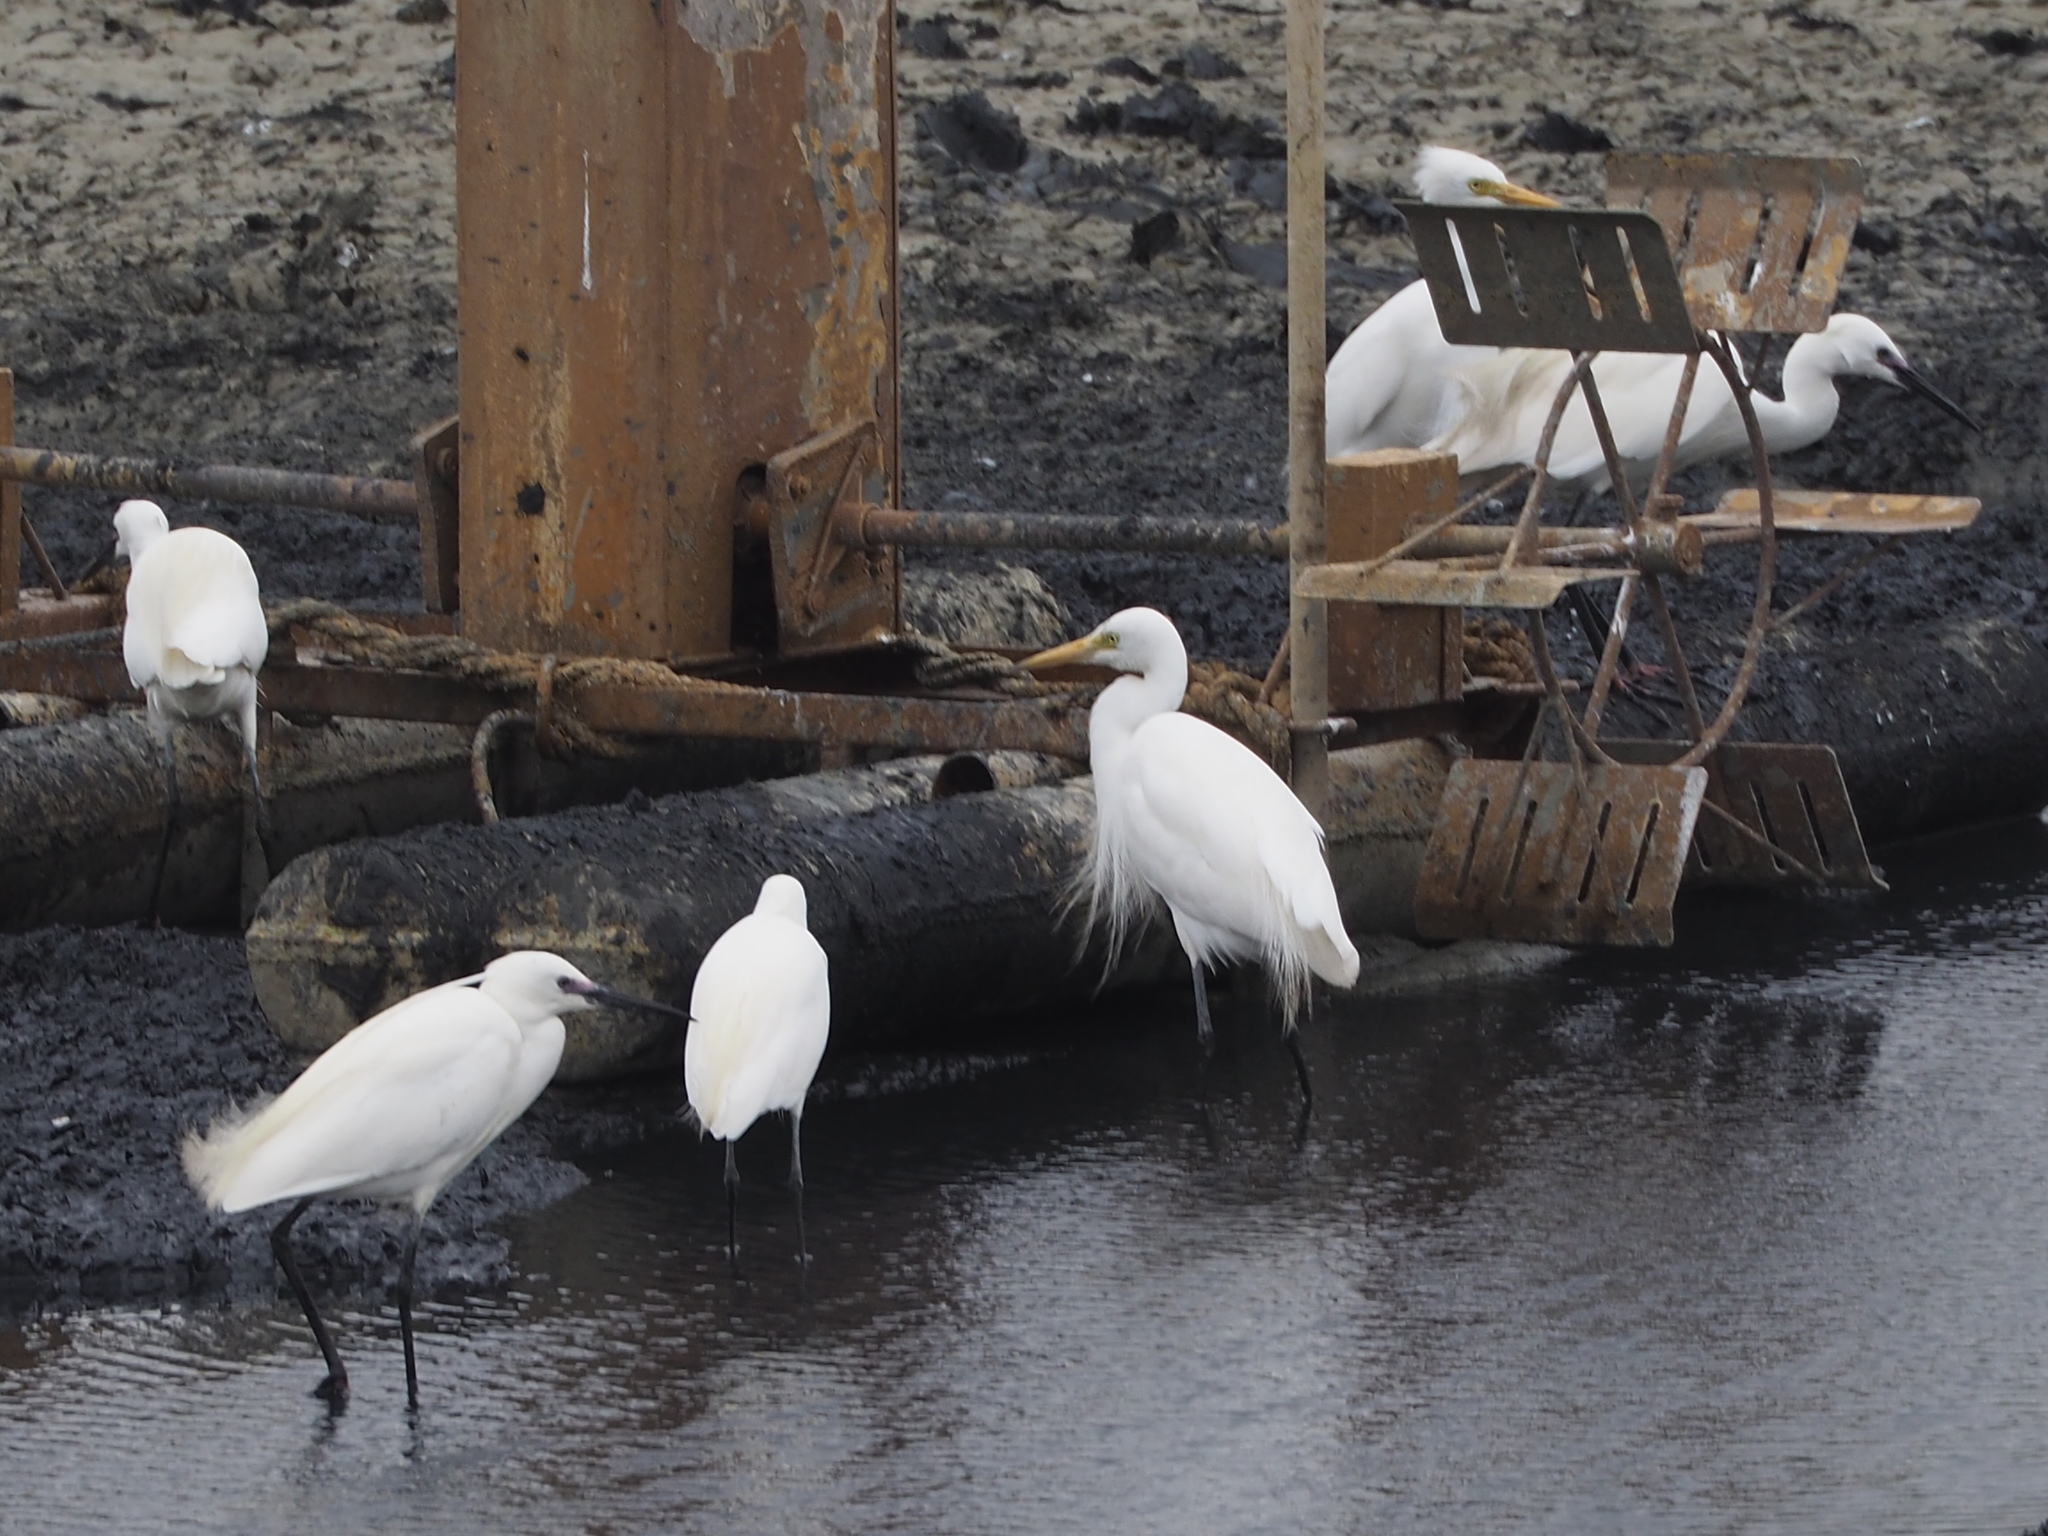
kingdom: Animalia
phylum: Chordata
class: Aves
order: Pelecaniformes
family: Ardeidae
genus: Egretta
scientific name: Egretta garzetta
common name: Little egret
